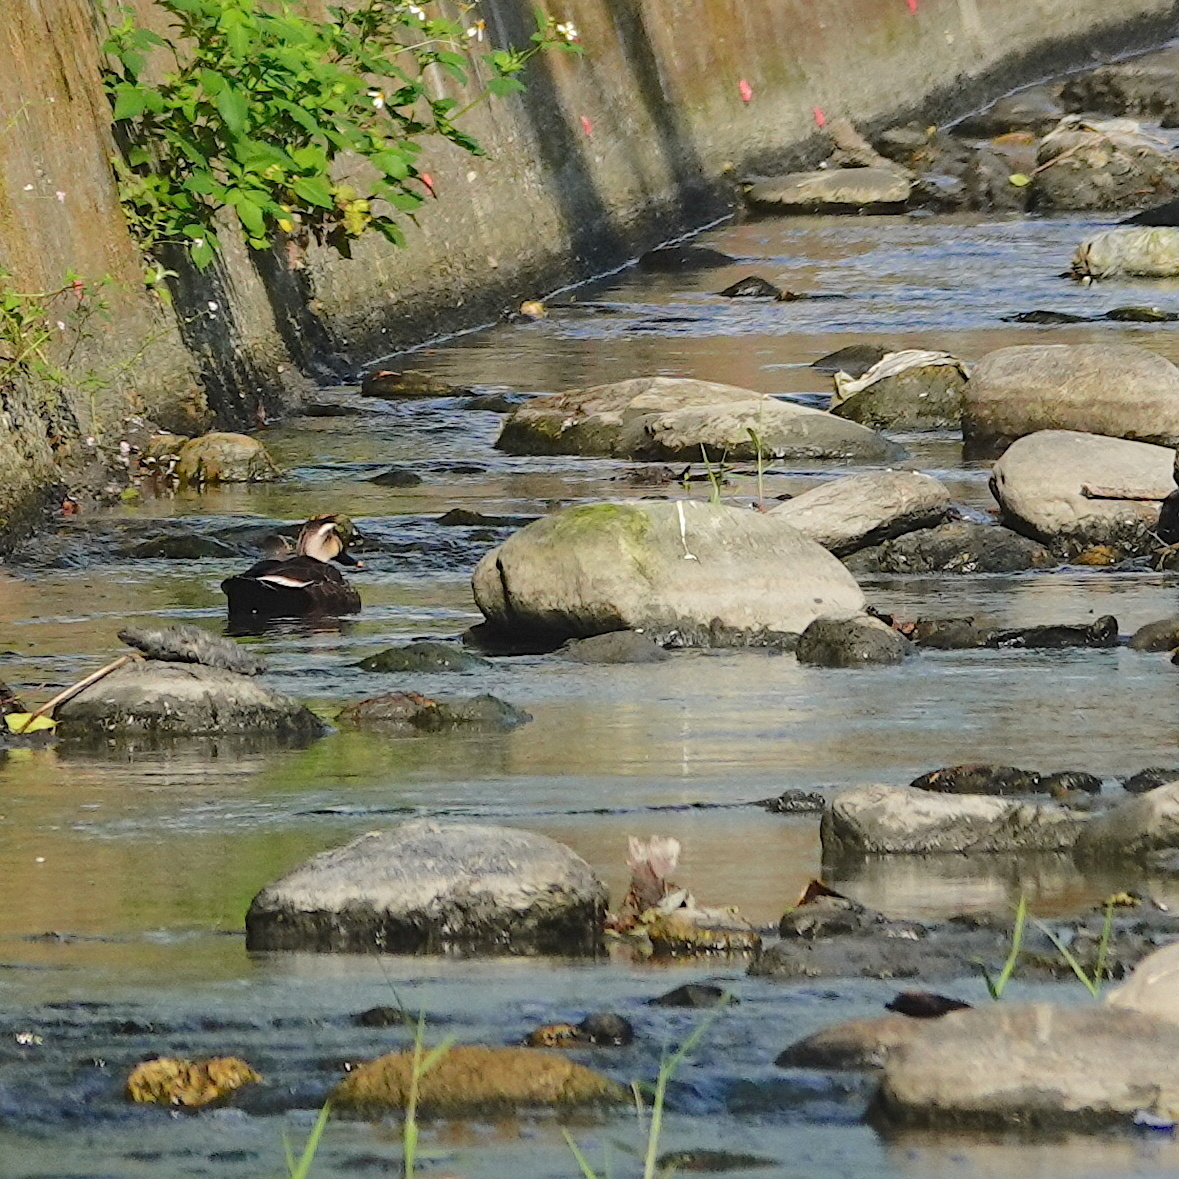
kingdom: Animalia
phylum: Chordata
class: Aves
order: Anseriformes
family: Anatidae
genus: Anas
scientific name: Anas zonorhyncha
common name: Eastern spot-billed duck
